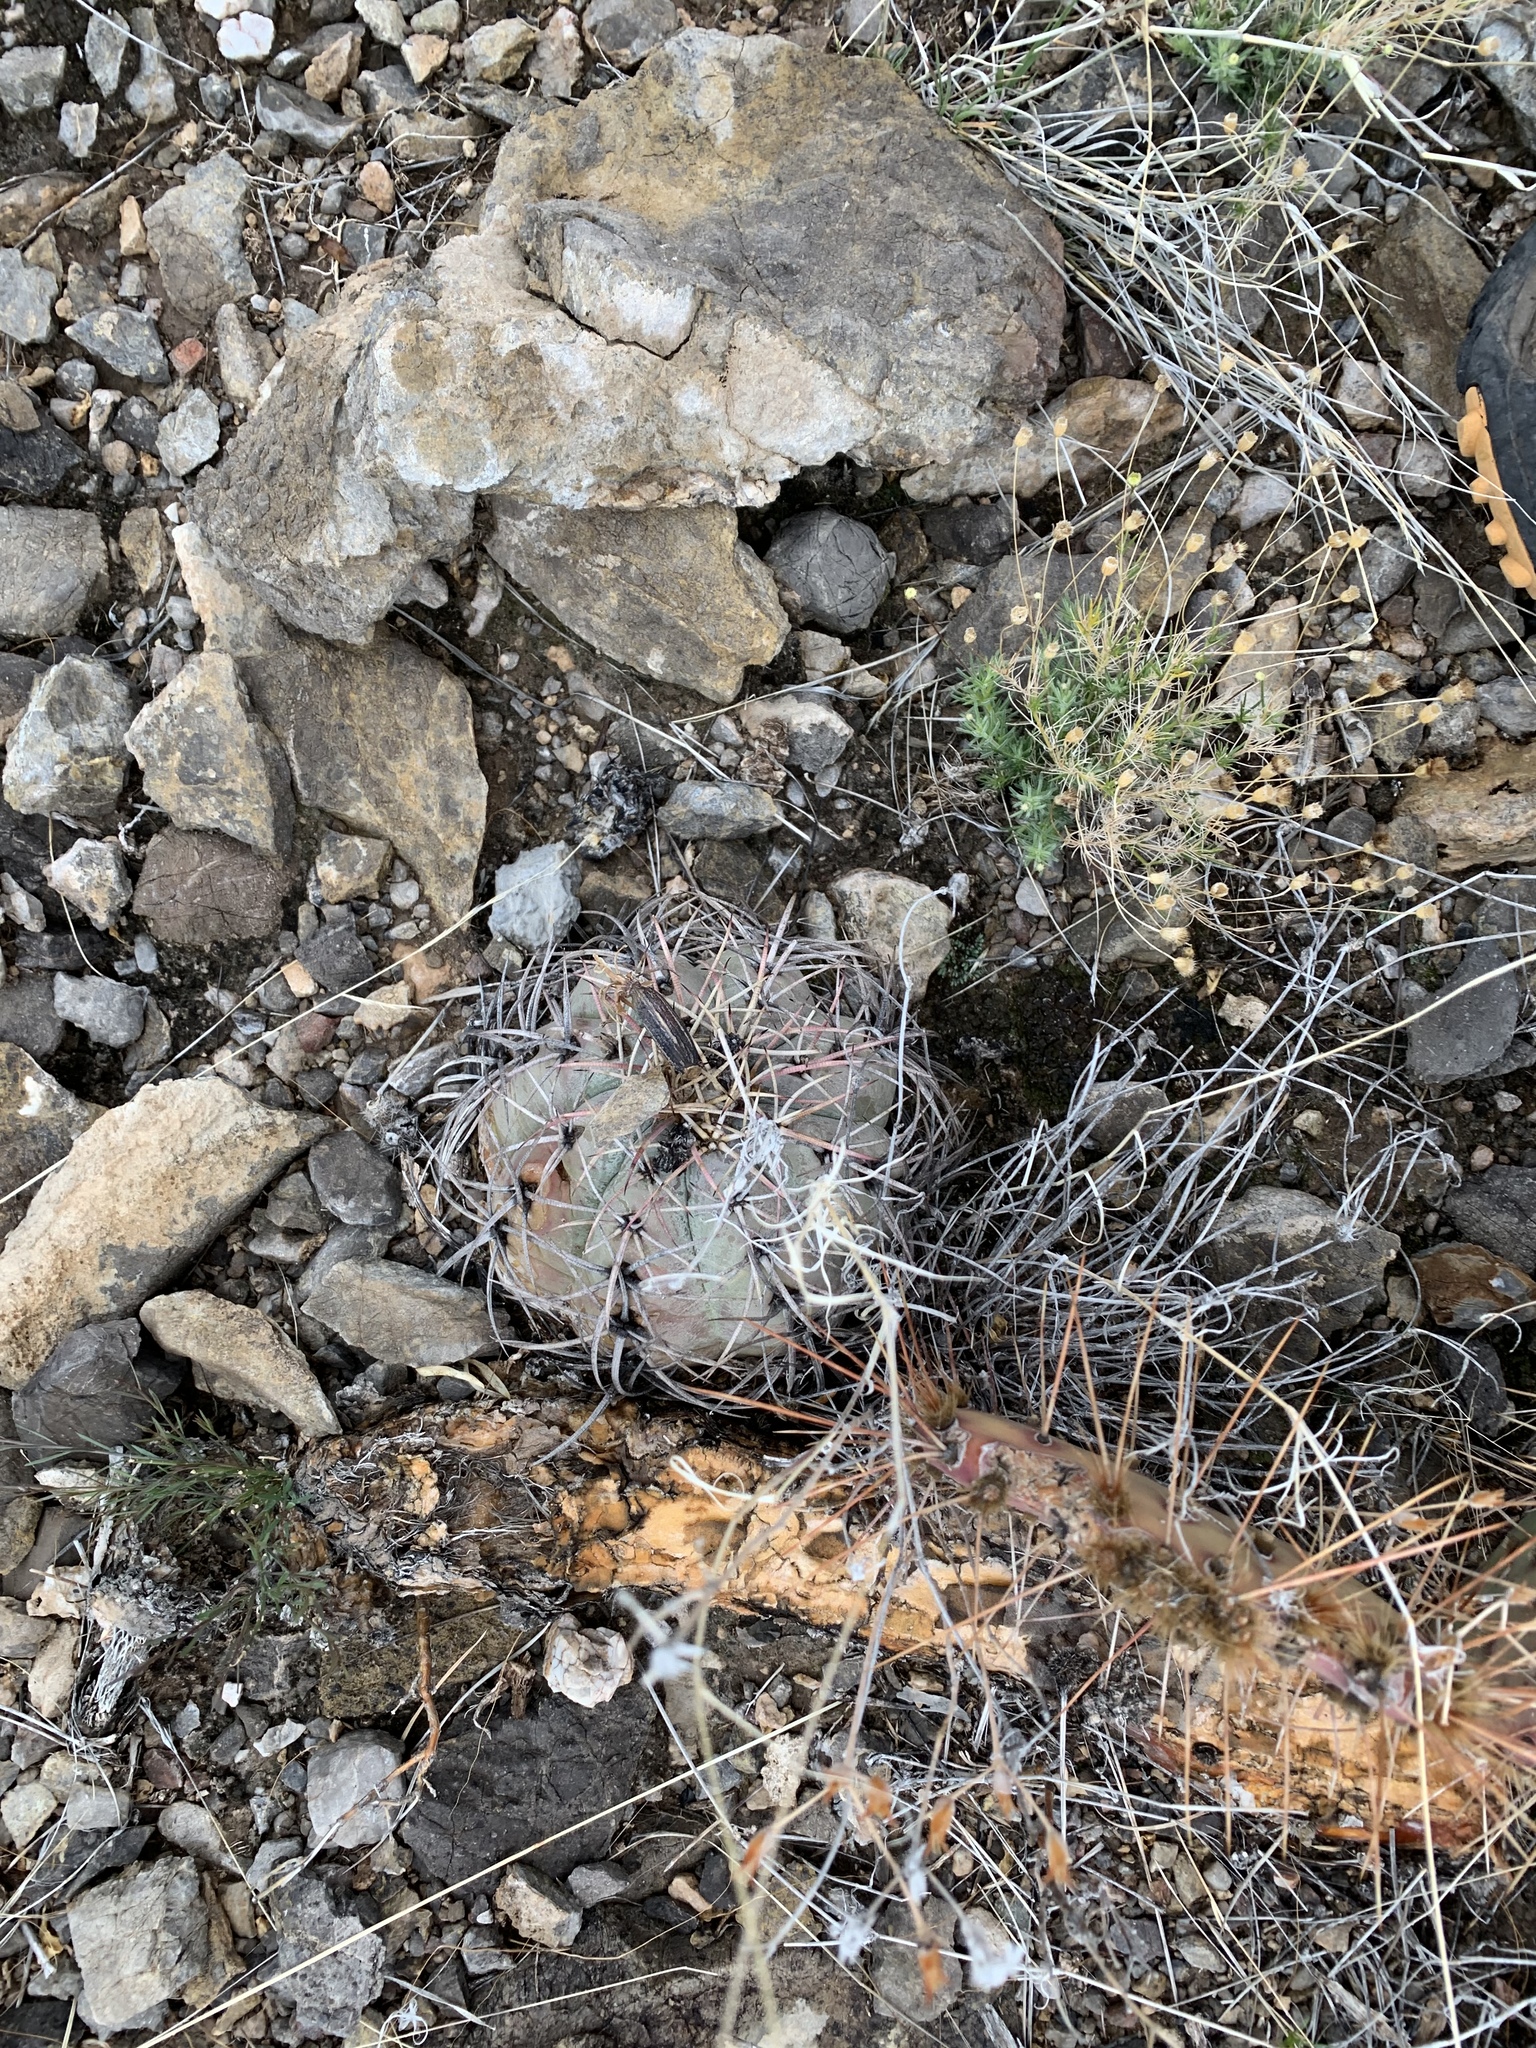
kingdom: Plantae
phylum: Tracheophyta
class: Magnoliopsida
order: Caryophyllales
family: Cactaceae
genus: Echinocactus
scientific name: Echinocactus horizonthalonius
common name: Devilshead
